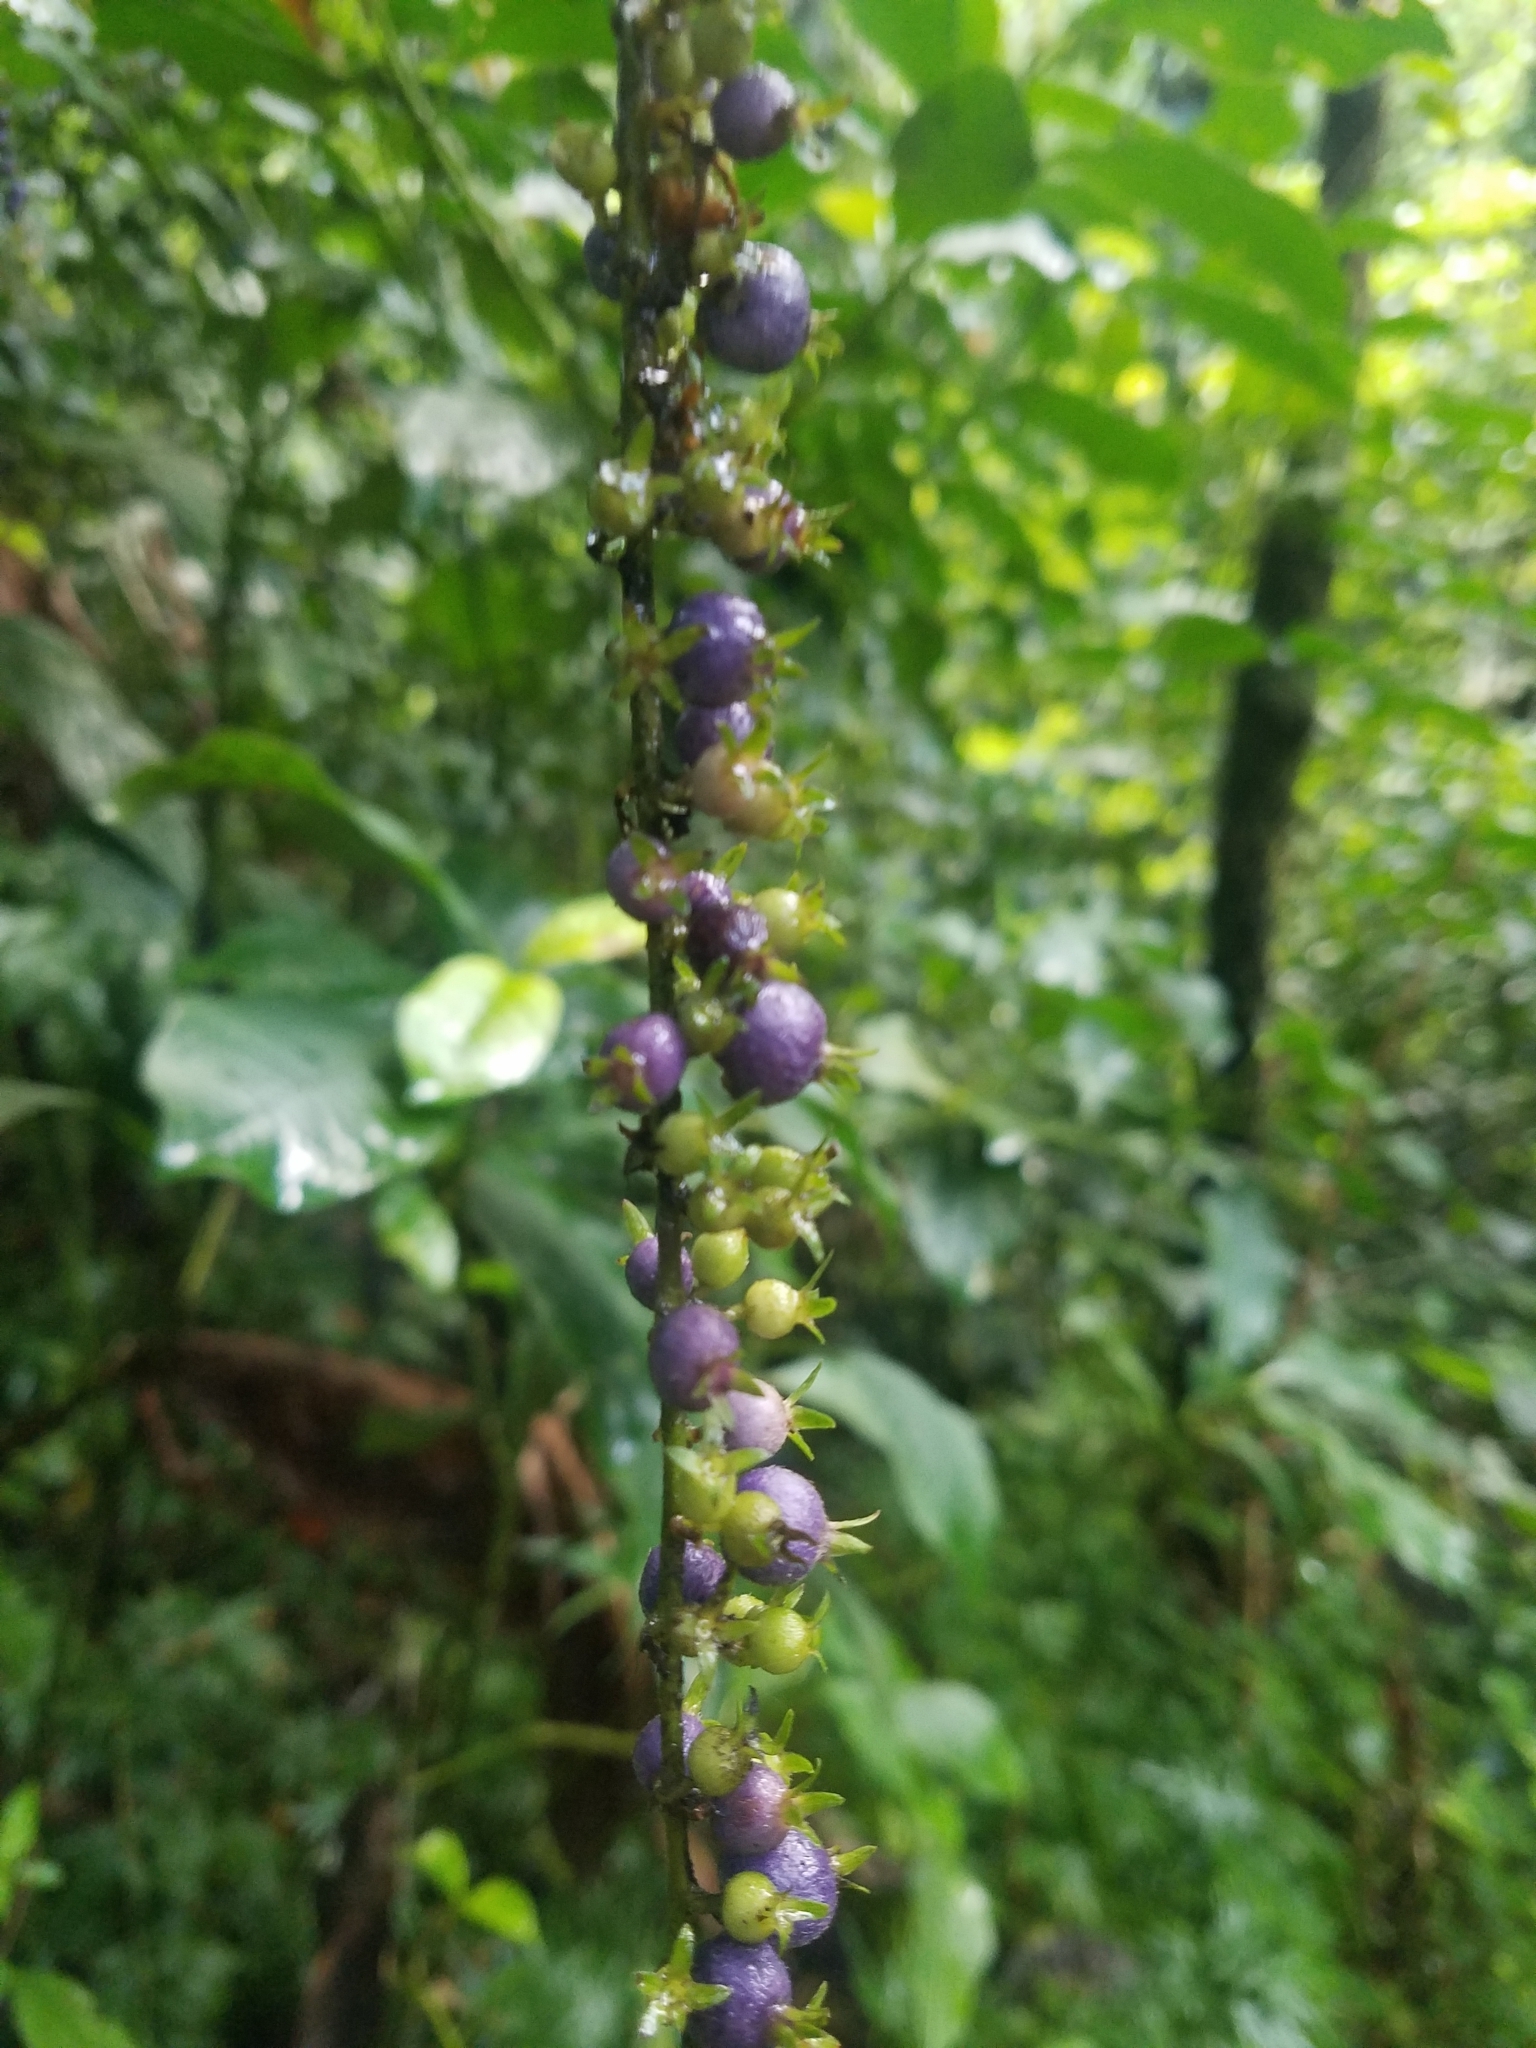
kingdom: Plantae
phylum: Tracheophyta
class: Magnoliopsida
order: Gentianales
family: Rubiaceae
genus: Gonzalagunia
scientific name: Gonzalagunia hirsuta
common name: Mata de mariposa
